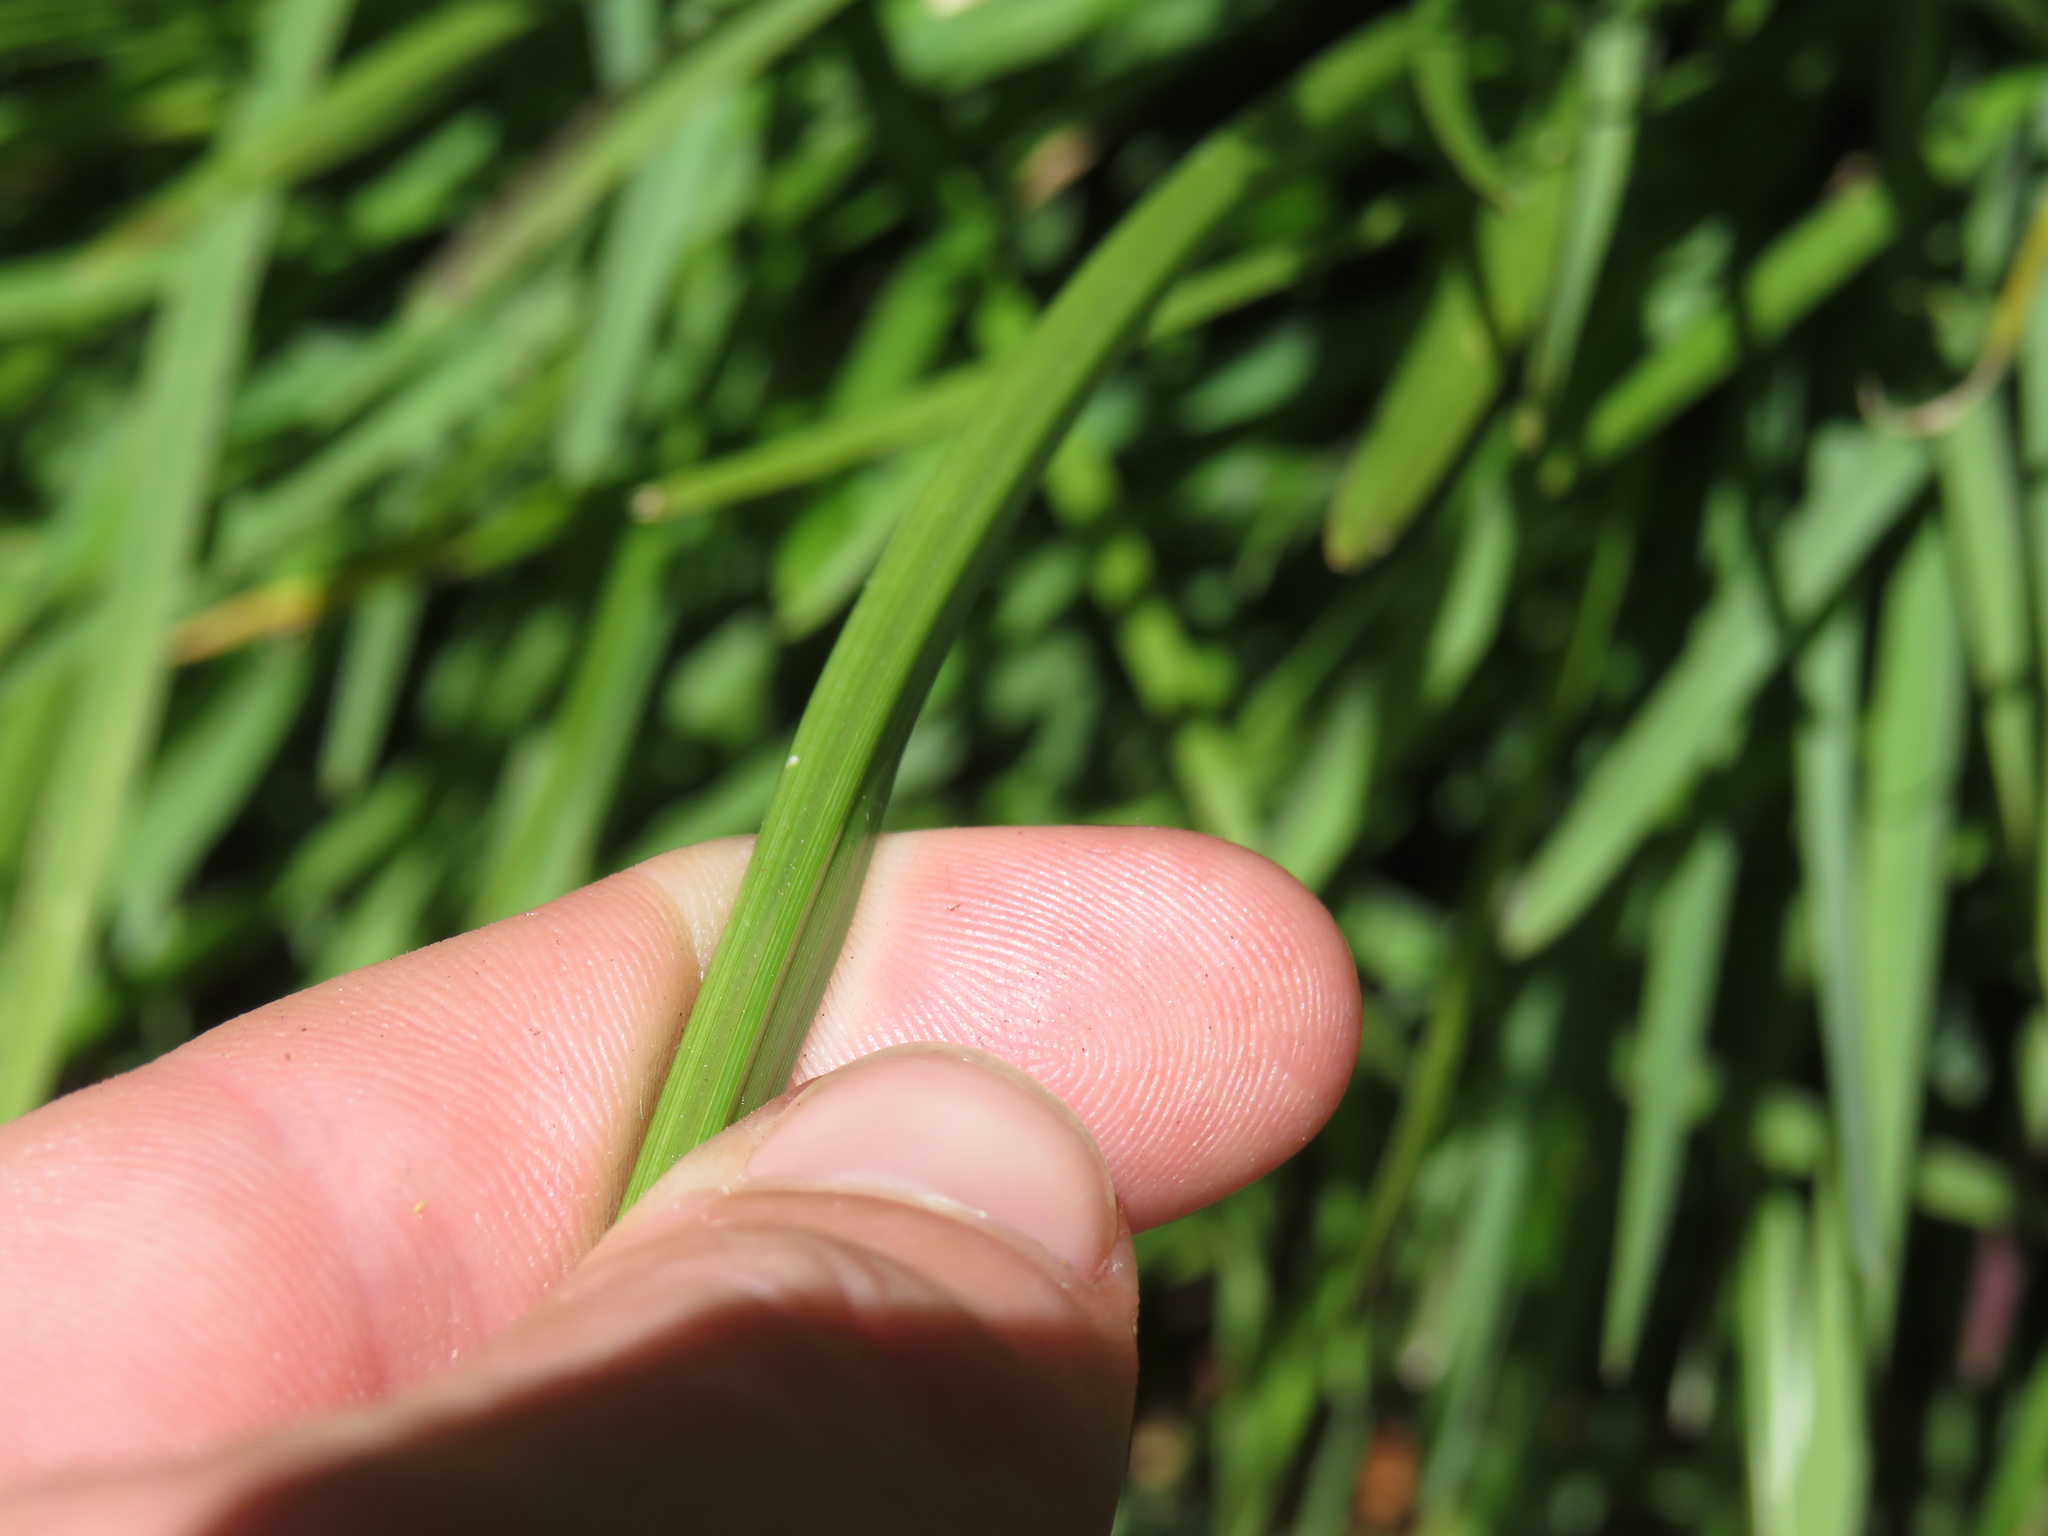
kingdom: Plantae
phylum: Tracheophyta
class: Liliopsida
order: Poales
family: Cyperaceae
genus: Cyperus
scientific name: Cyperus congestus
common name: Dense flat sedge
